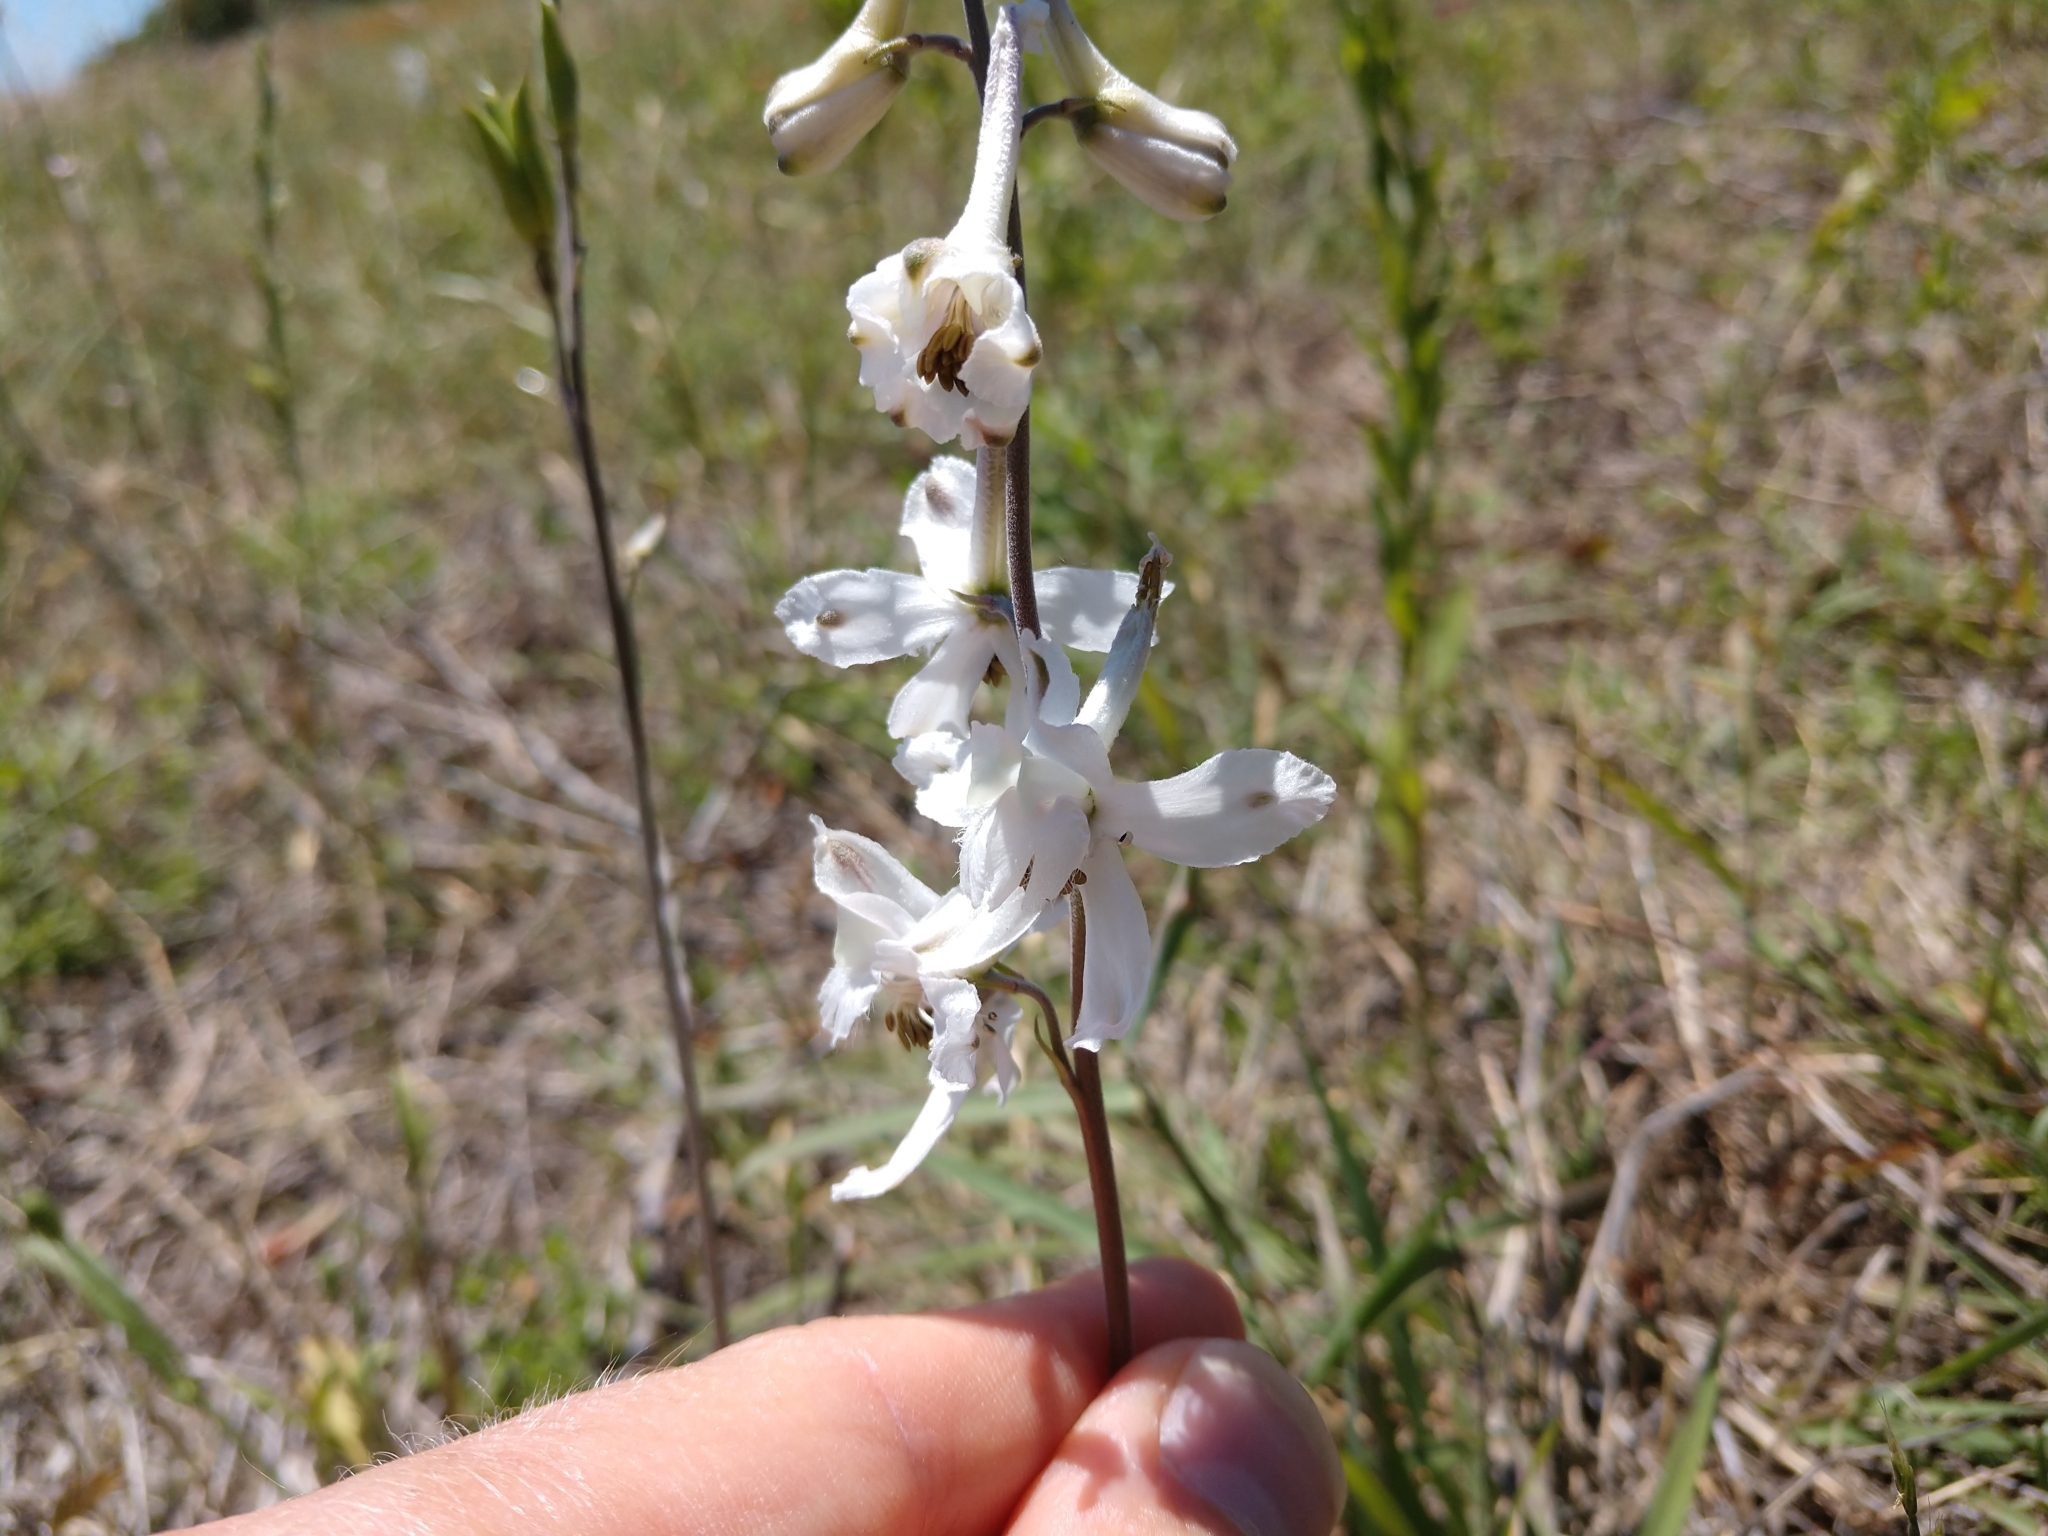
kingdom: Plantae
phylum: Tracheophyta
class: Magnoliopsida
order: Ranunculales
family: Ranunculaceae
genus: Delphinium
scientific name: Delphinium carolinianum
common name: Carolina larkspur
